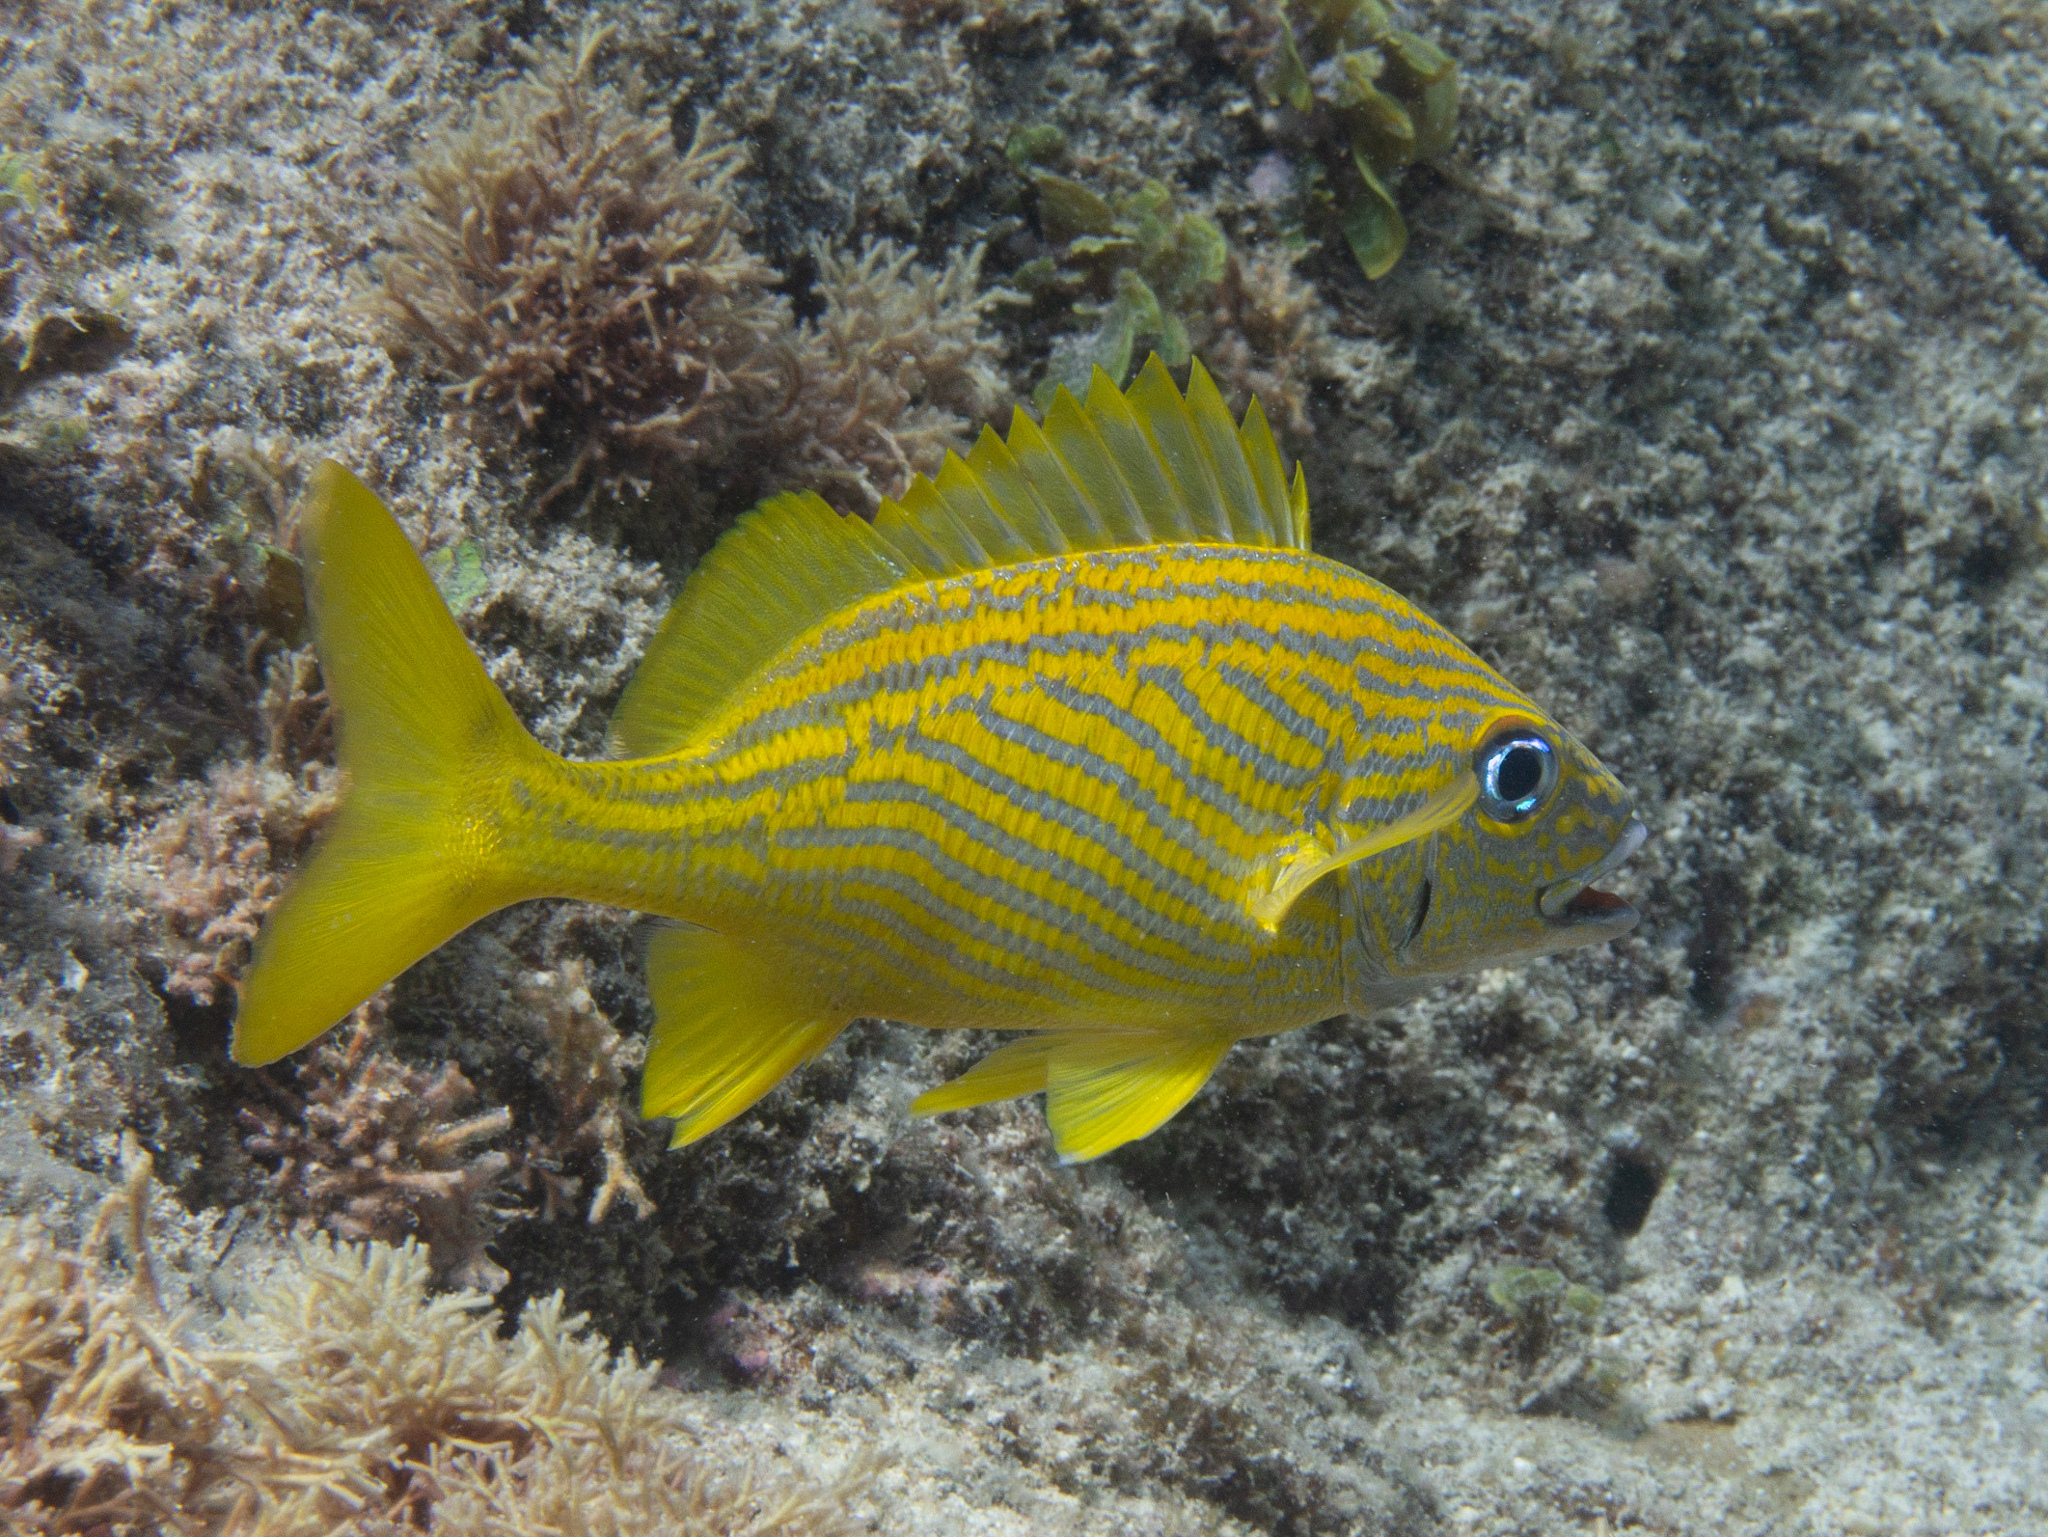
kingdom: Animalia
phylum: Chordata
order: Perciformes
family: Haemulidae
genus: Haemulon
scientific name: Haemulon flavolineatum
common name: French grunt
